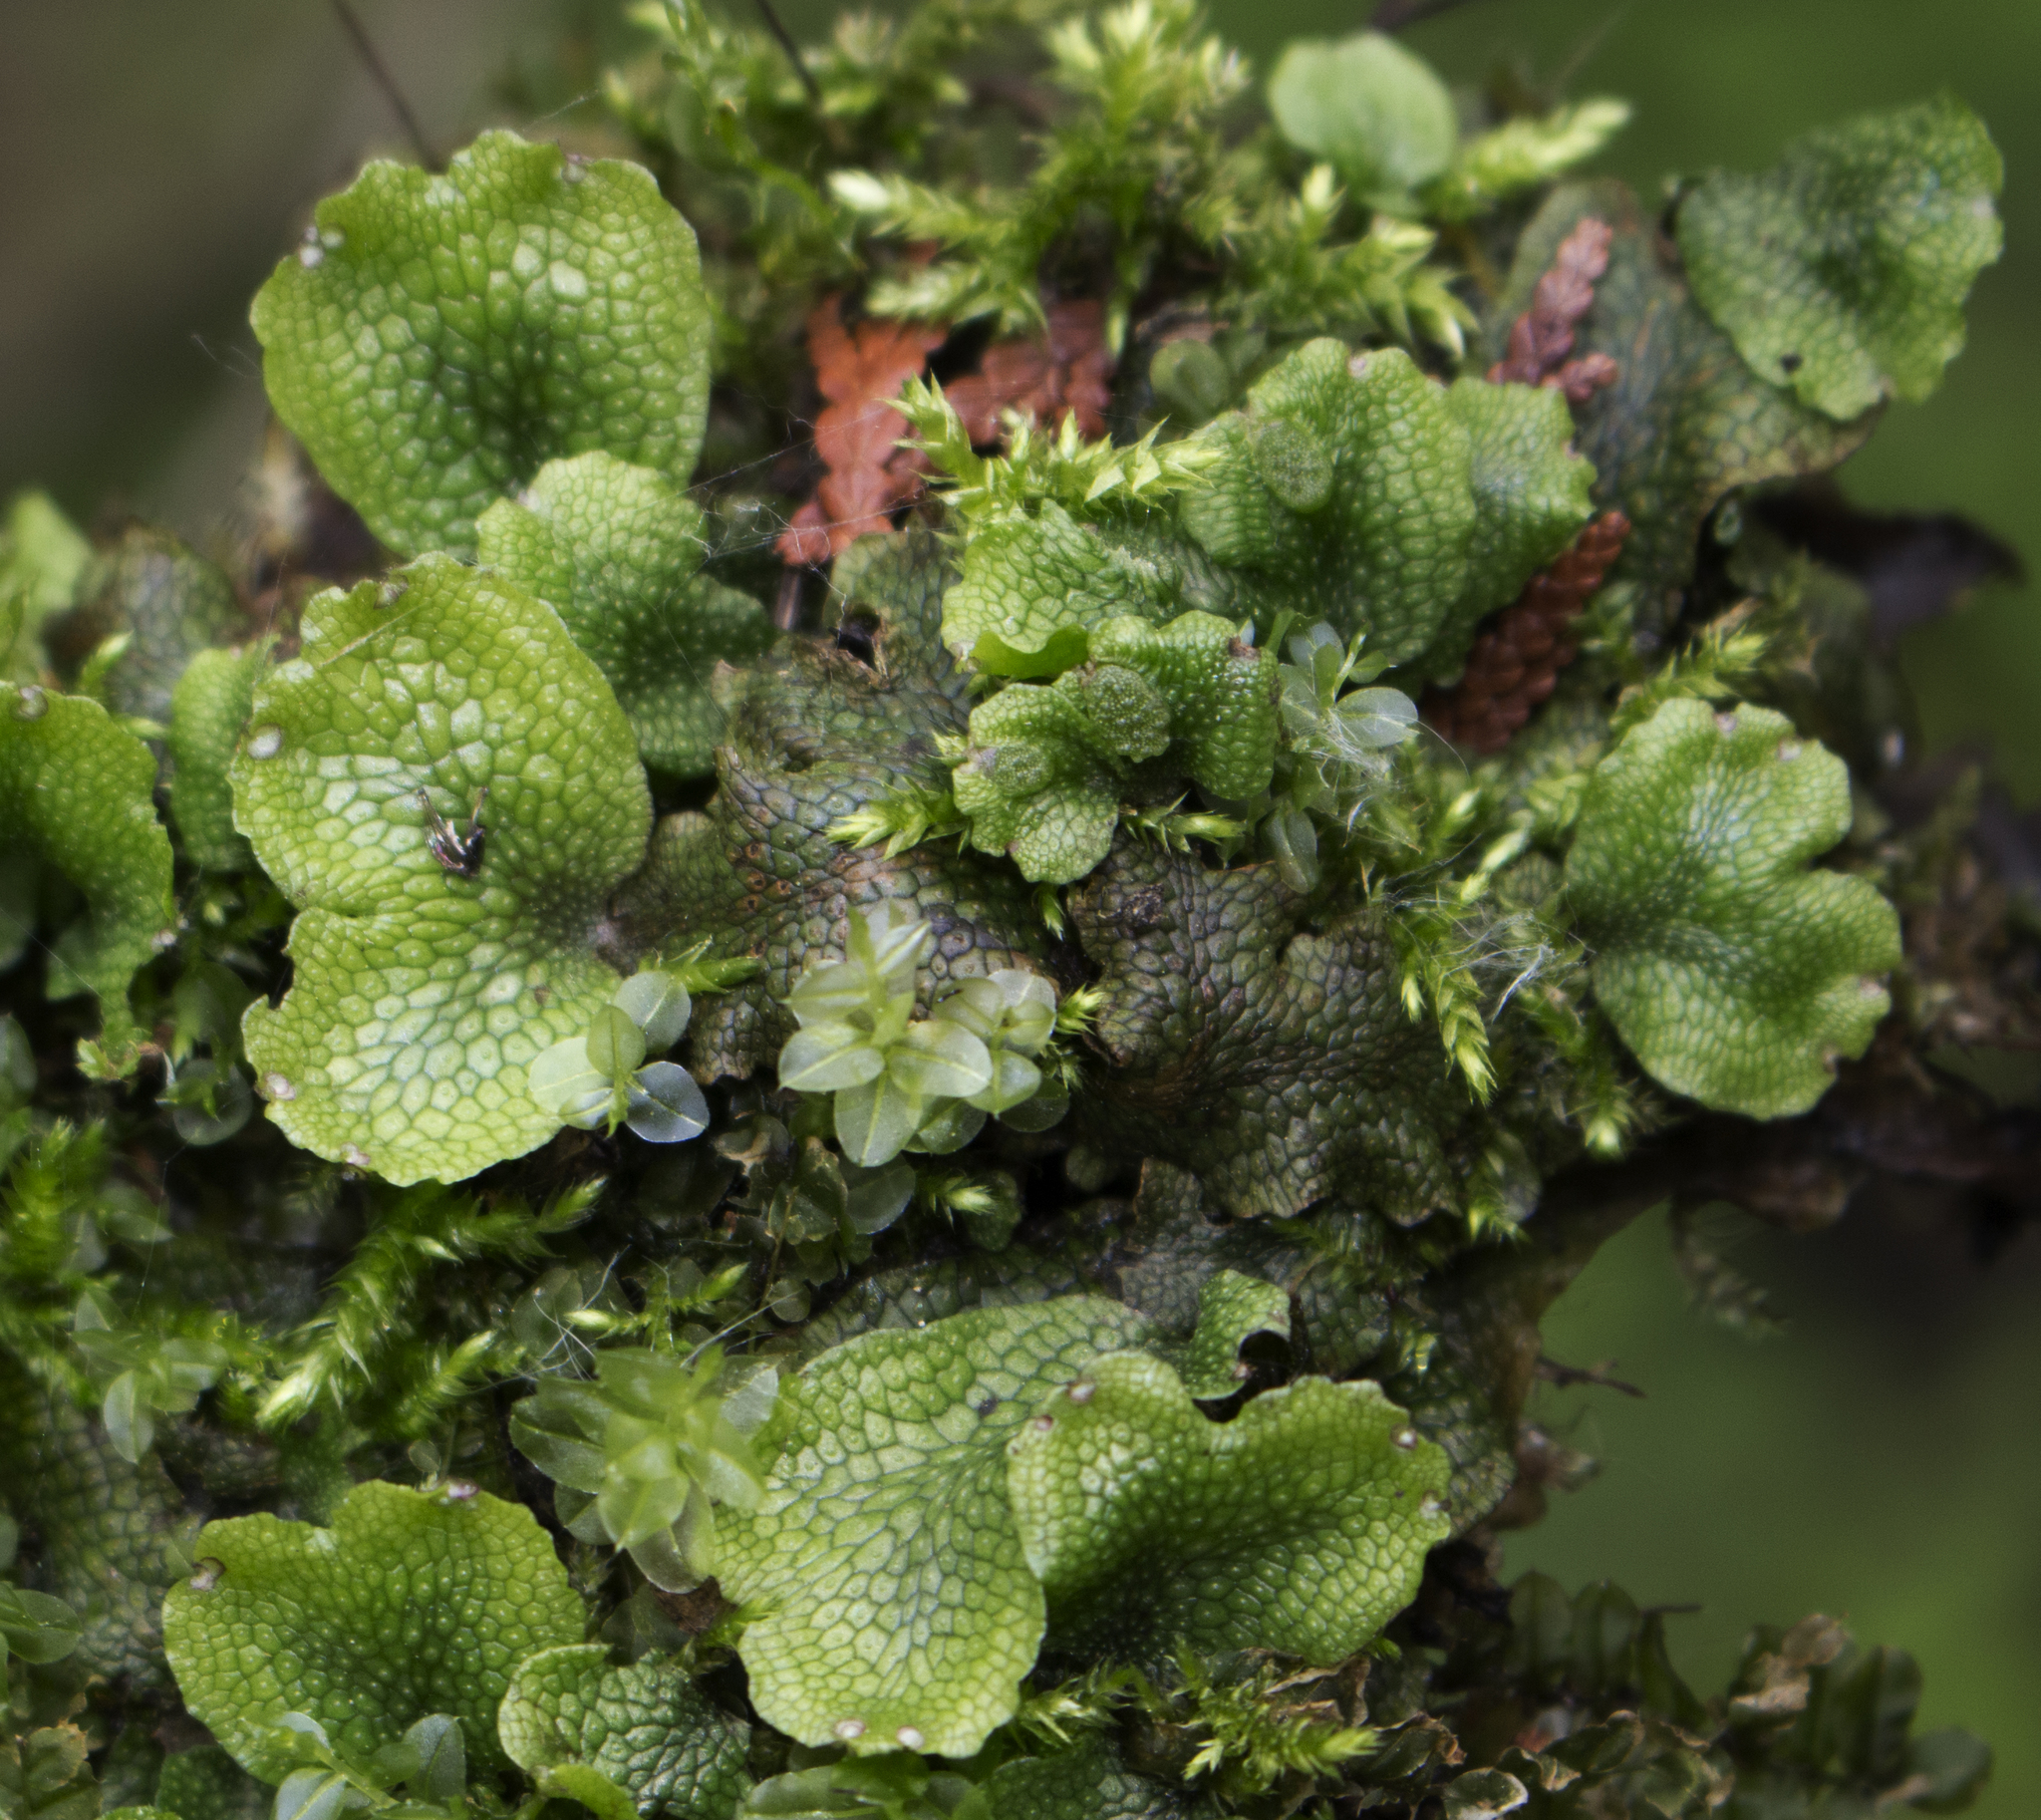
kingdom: Plantae
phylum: Marchantiophyta
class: Marchantiopsida
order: Marchantiales
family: Conocephalaceae
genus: Conocephalum
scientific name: Conocephalum salebrosum
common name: Cat-tongue liverwort
